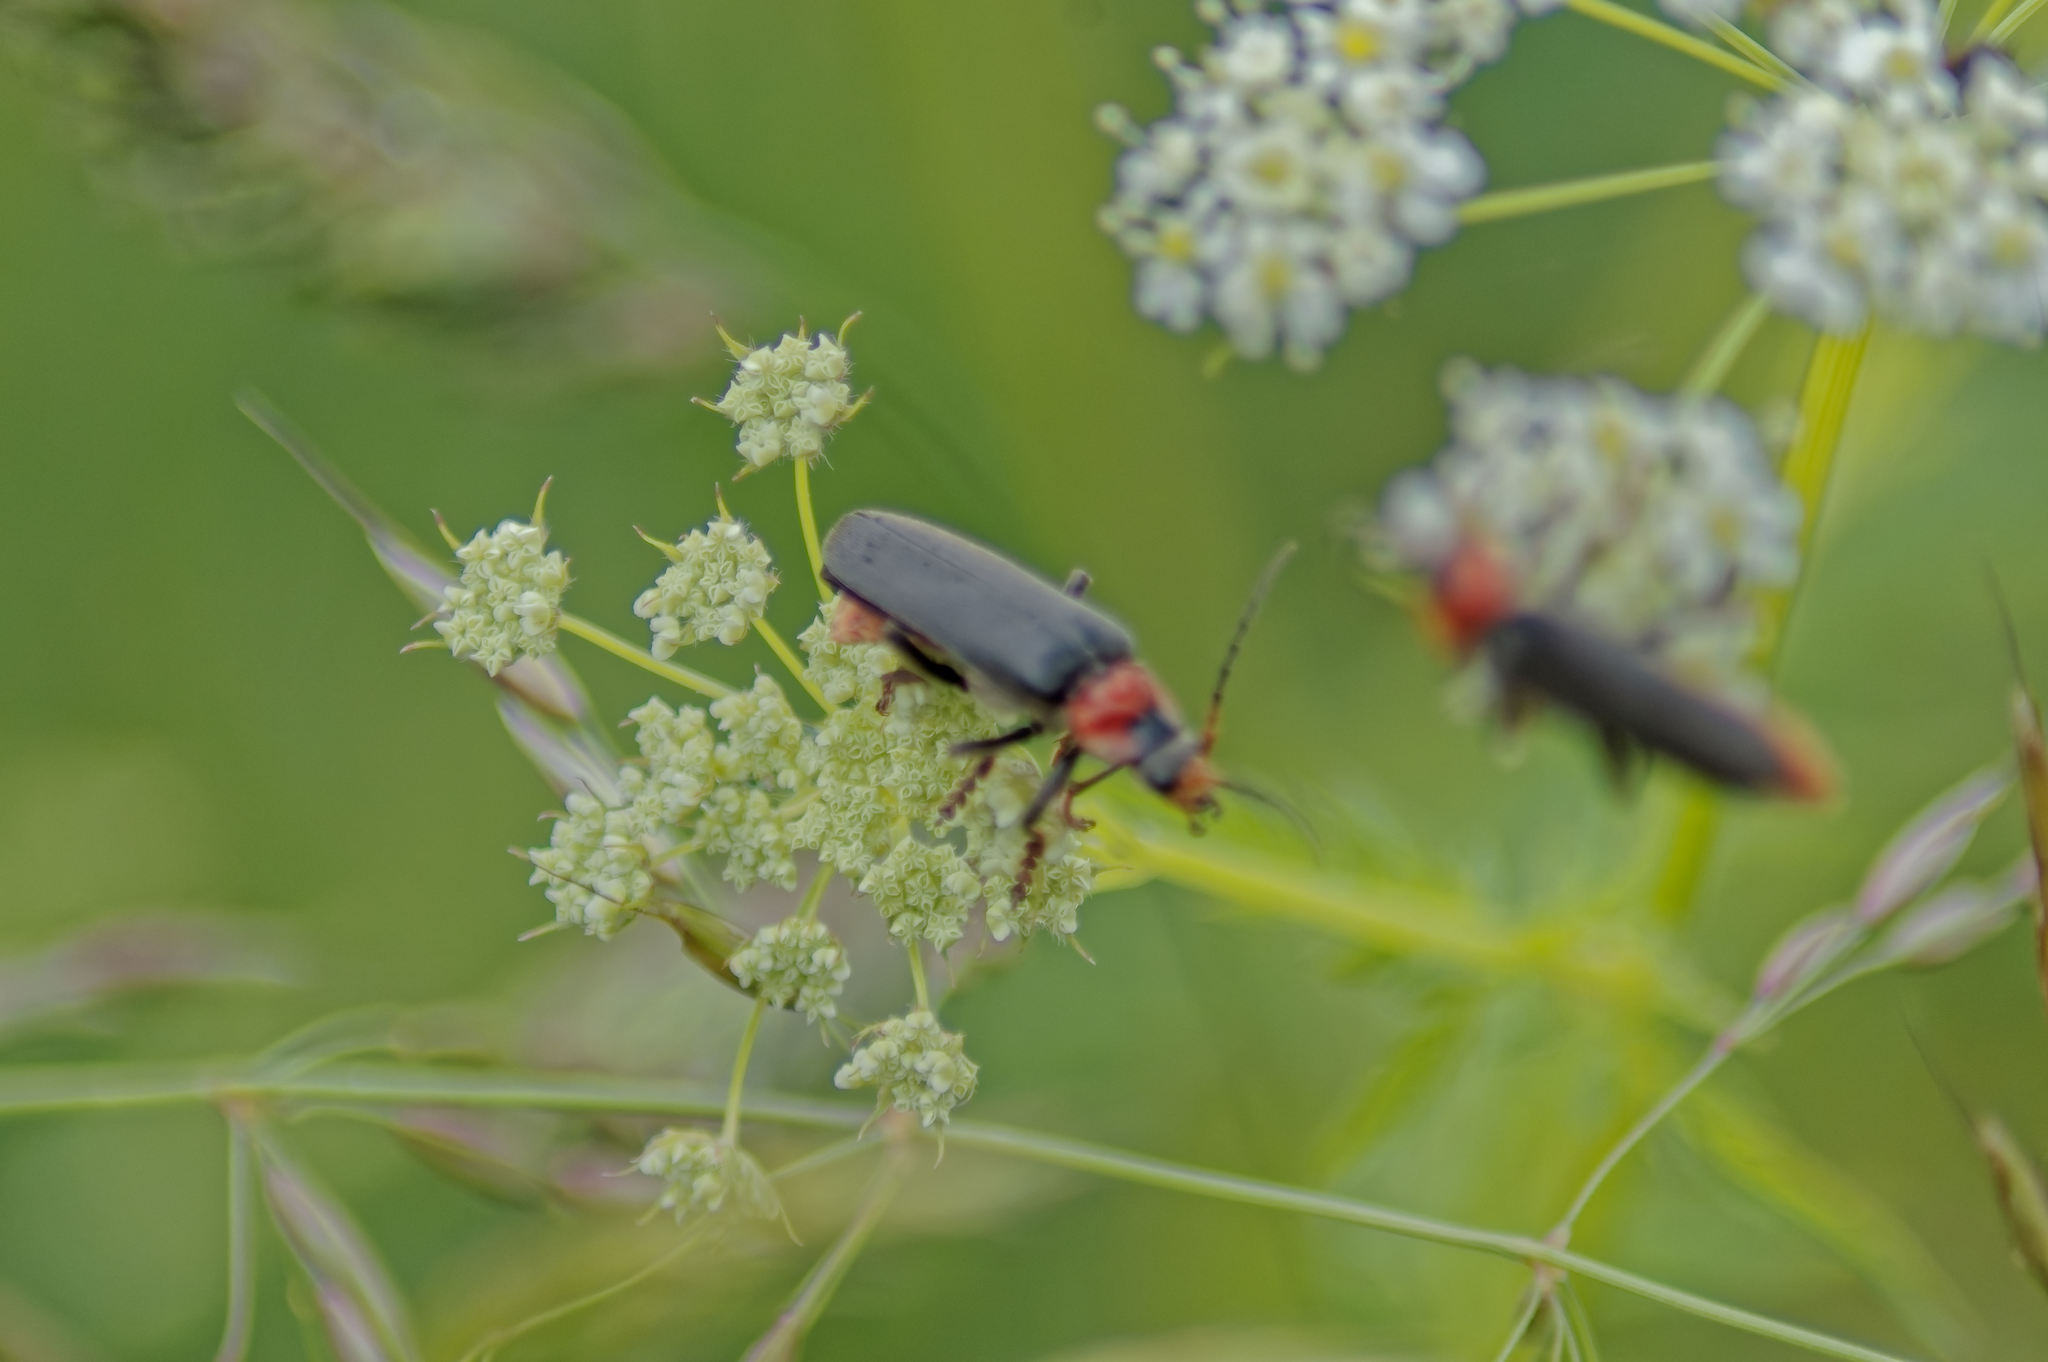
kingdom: Animalia
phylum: Arthropoda
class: Insecta
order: Coleoptera
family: Cantharidae
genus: Cantharis
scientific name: Cantharis fusca
